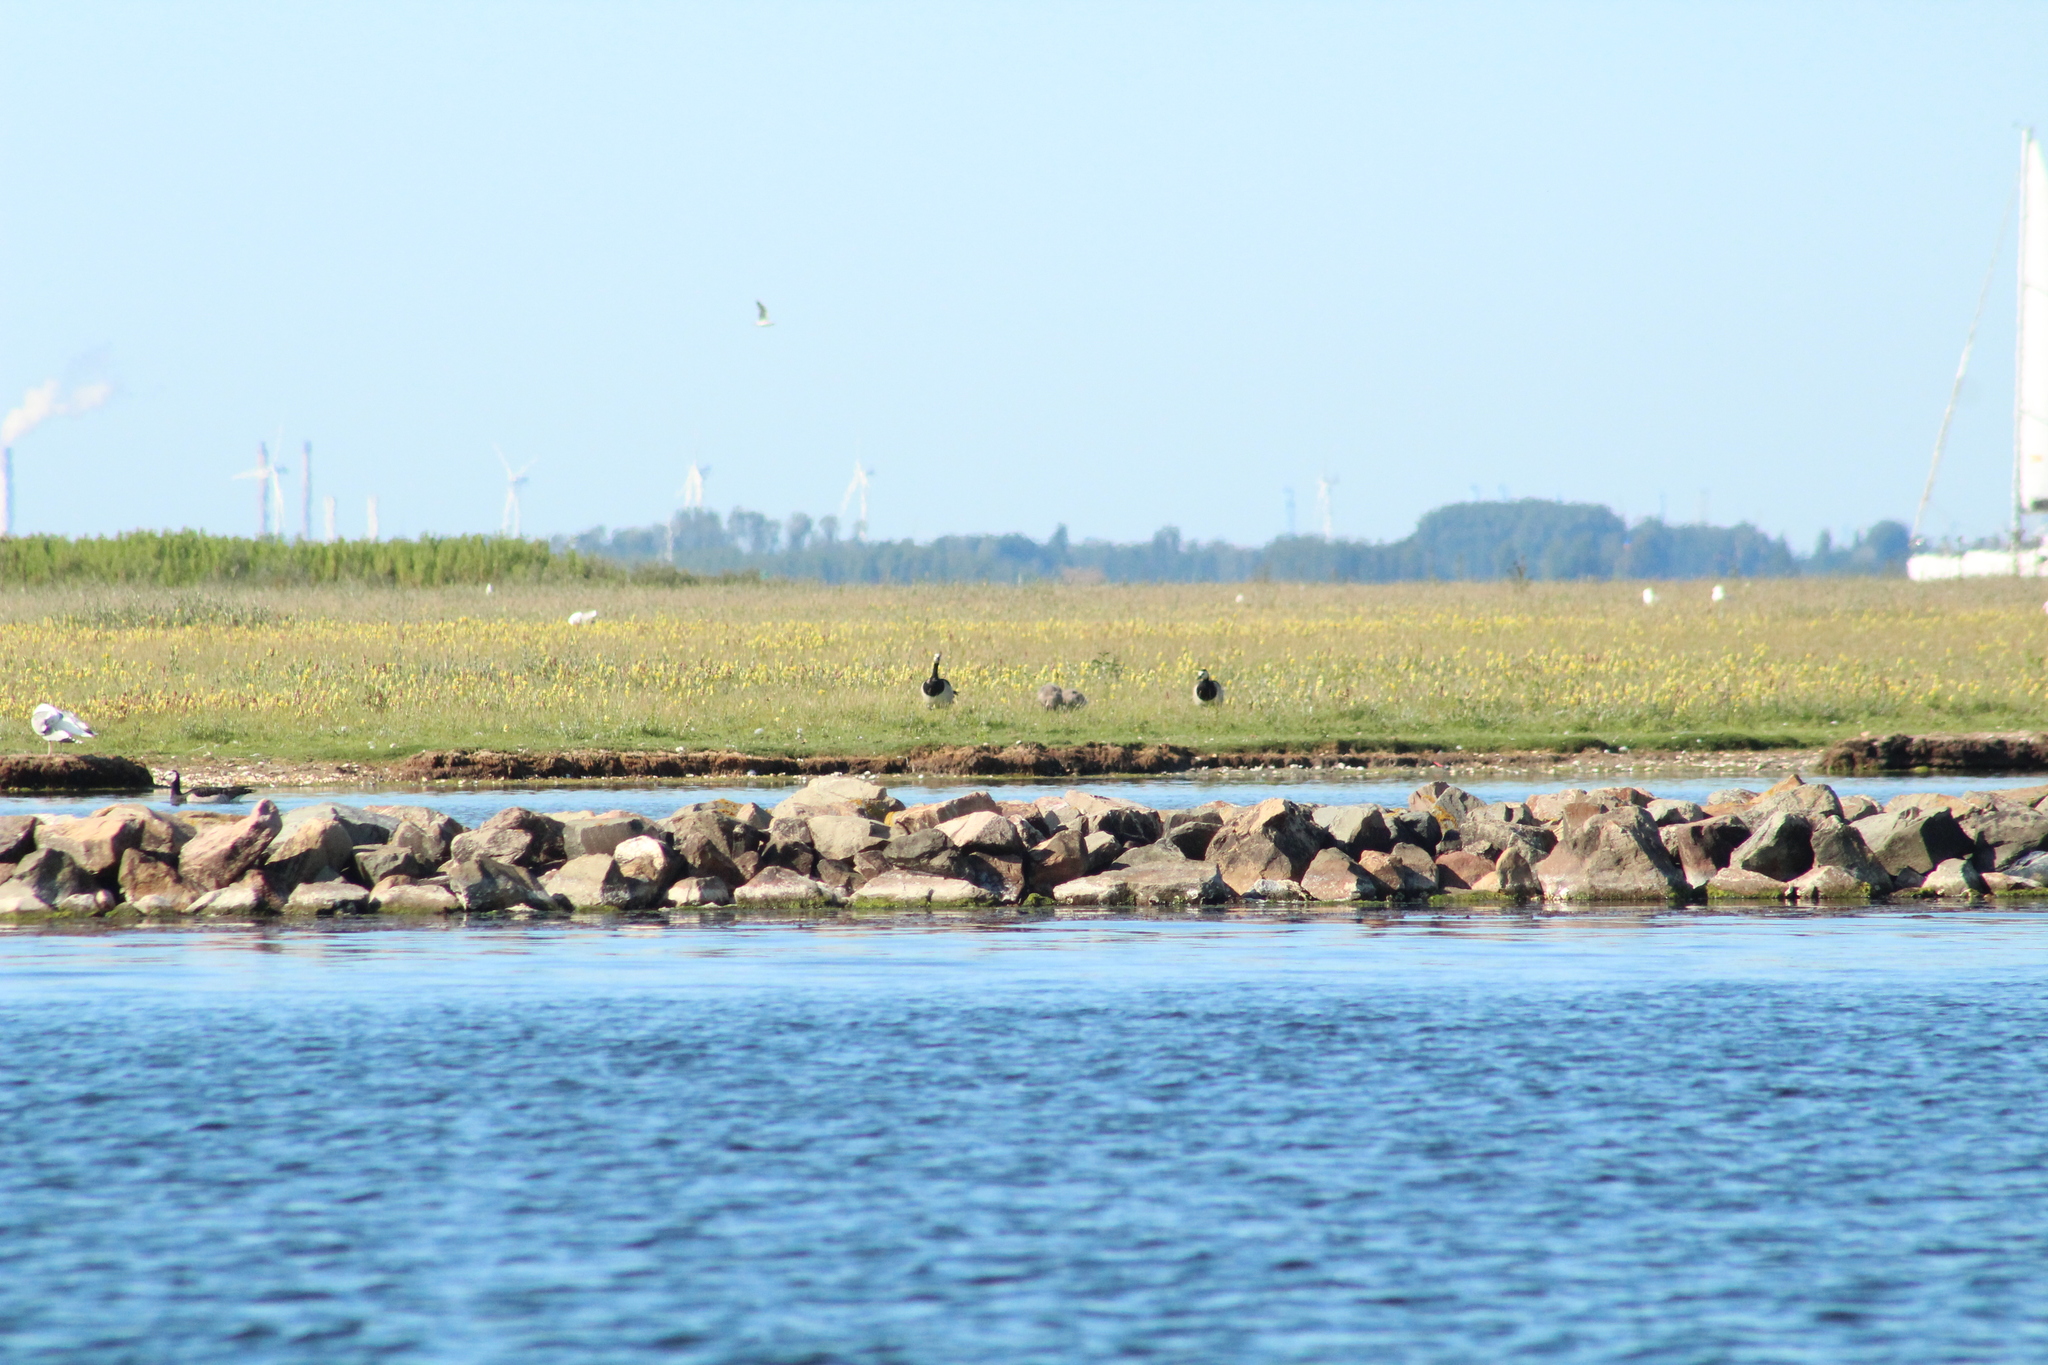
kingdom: Animalia
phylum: Chordata
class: Aves
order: Anseriformes
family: Anatidae
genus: Branta
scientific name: Branta leucopsis
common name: Barnacle goose
